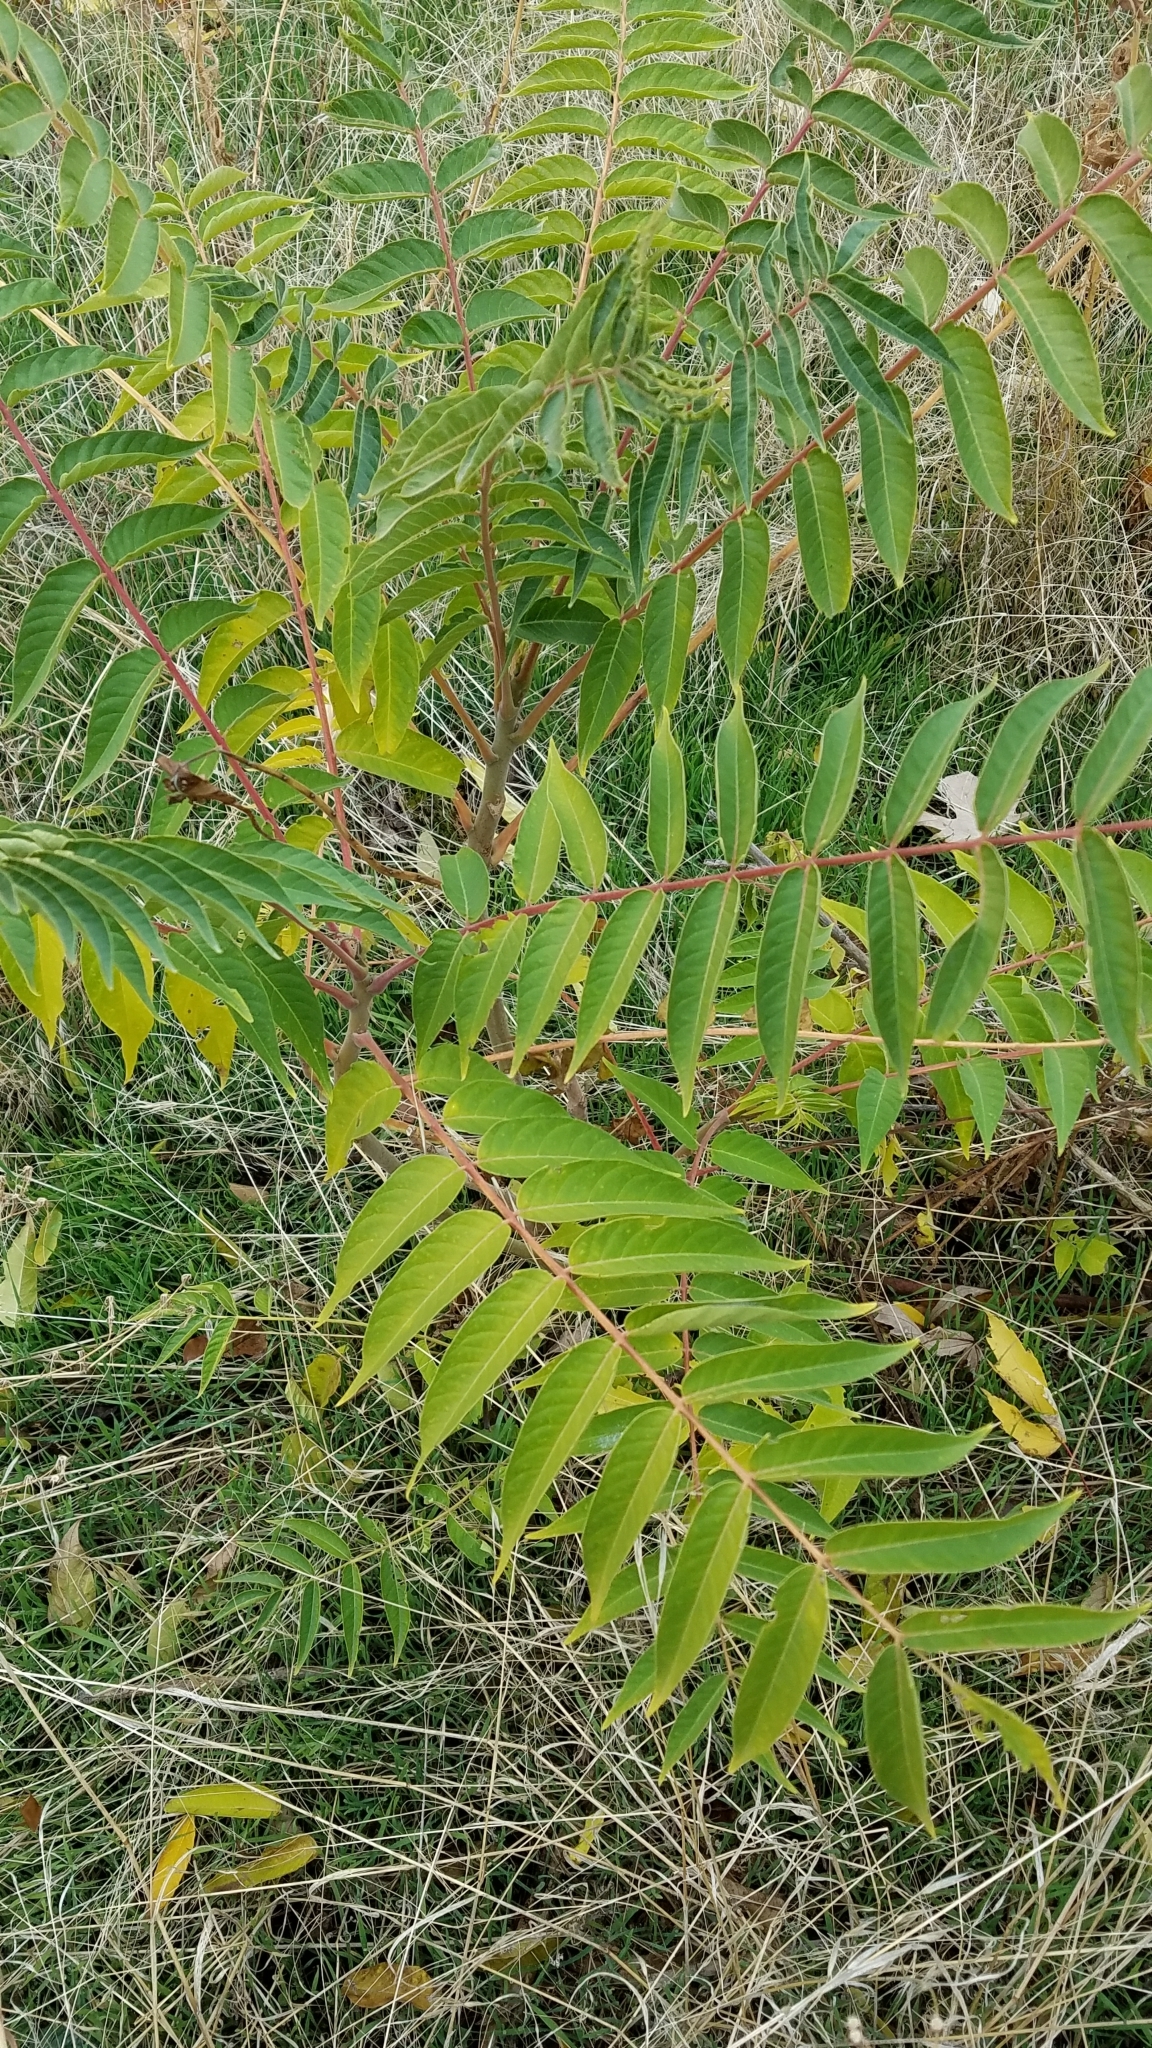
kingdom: Plantae
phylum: Tracheophyta
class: Magnoliopsida
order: Sapindales
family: Simaroubaceae
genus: Ailanthus
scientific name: Ailanthus altissima
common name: Tree-of-heaven
